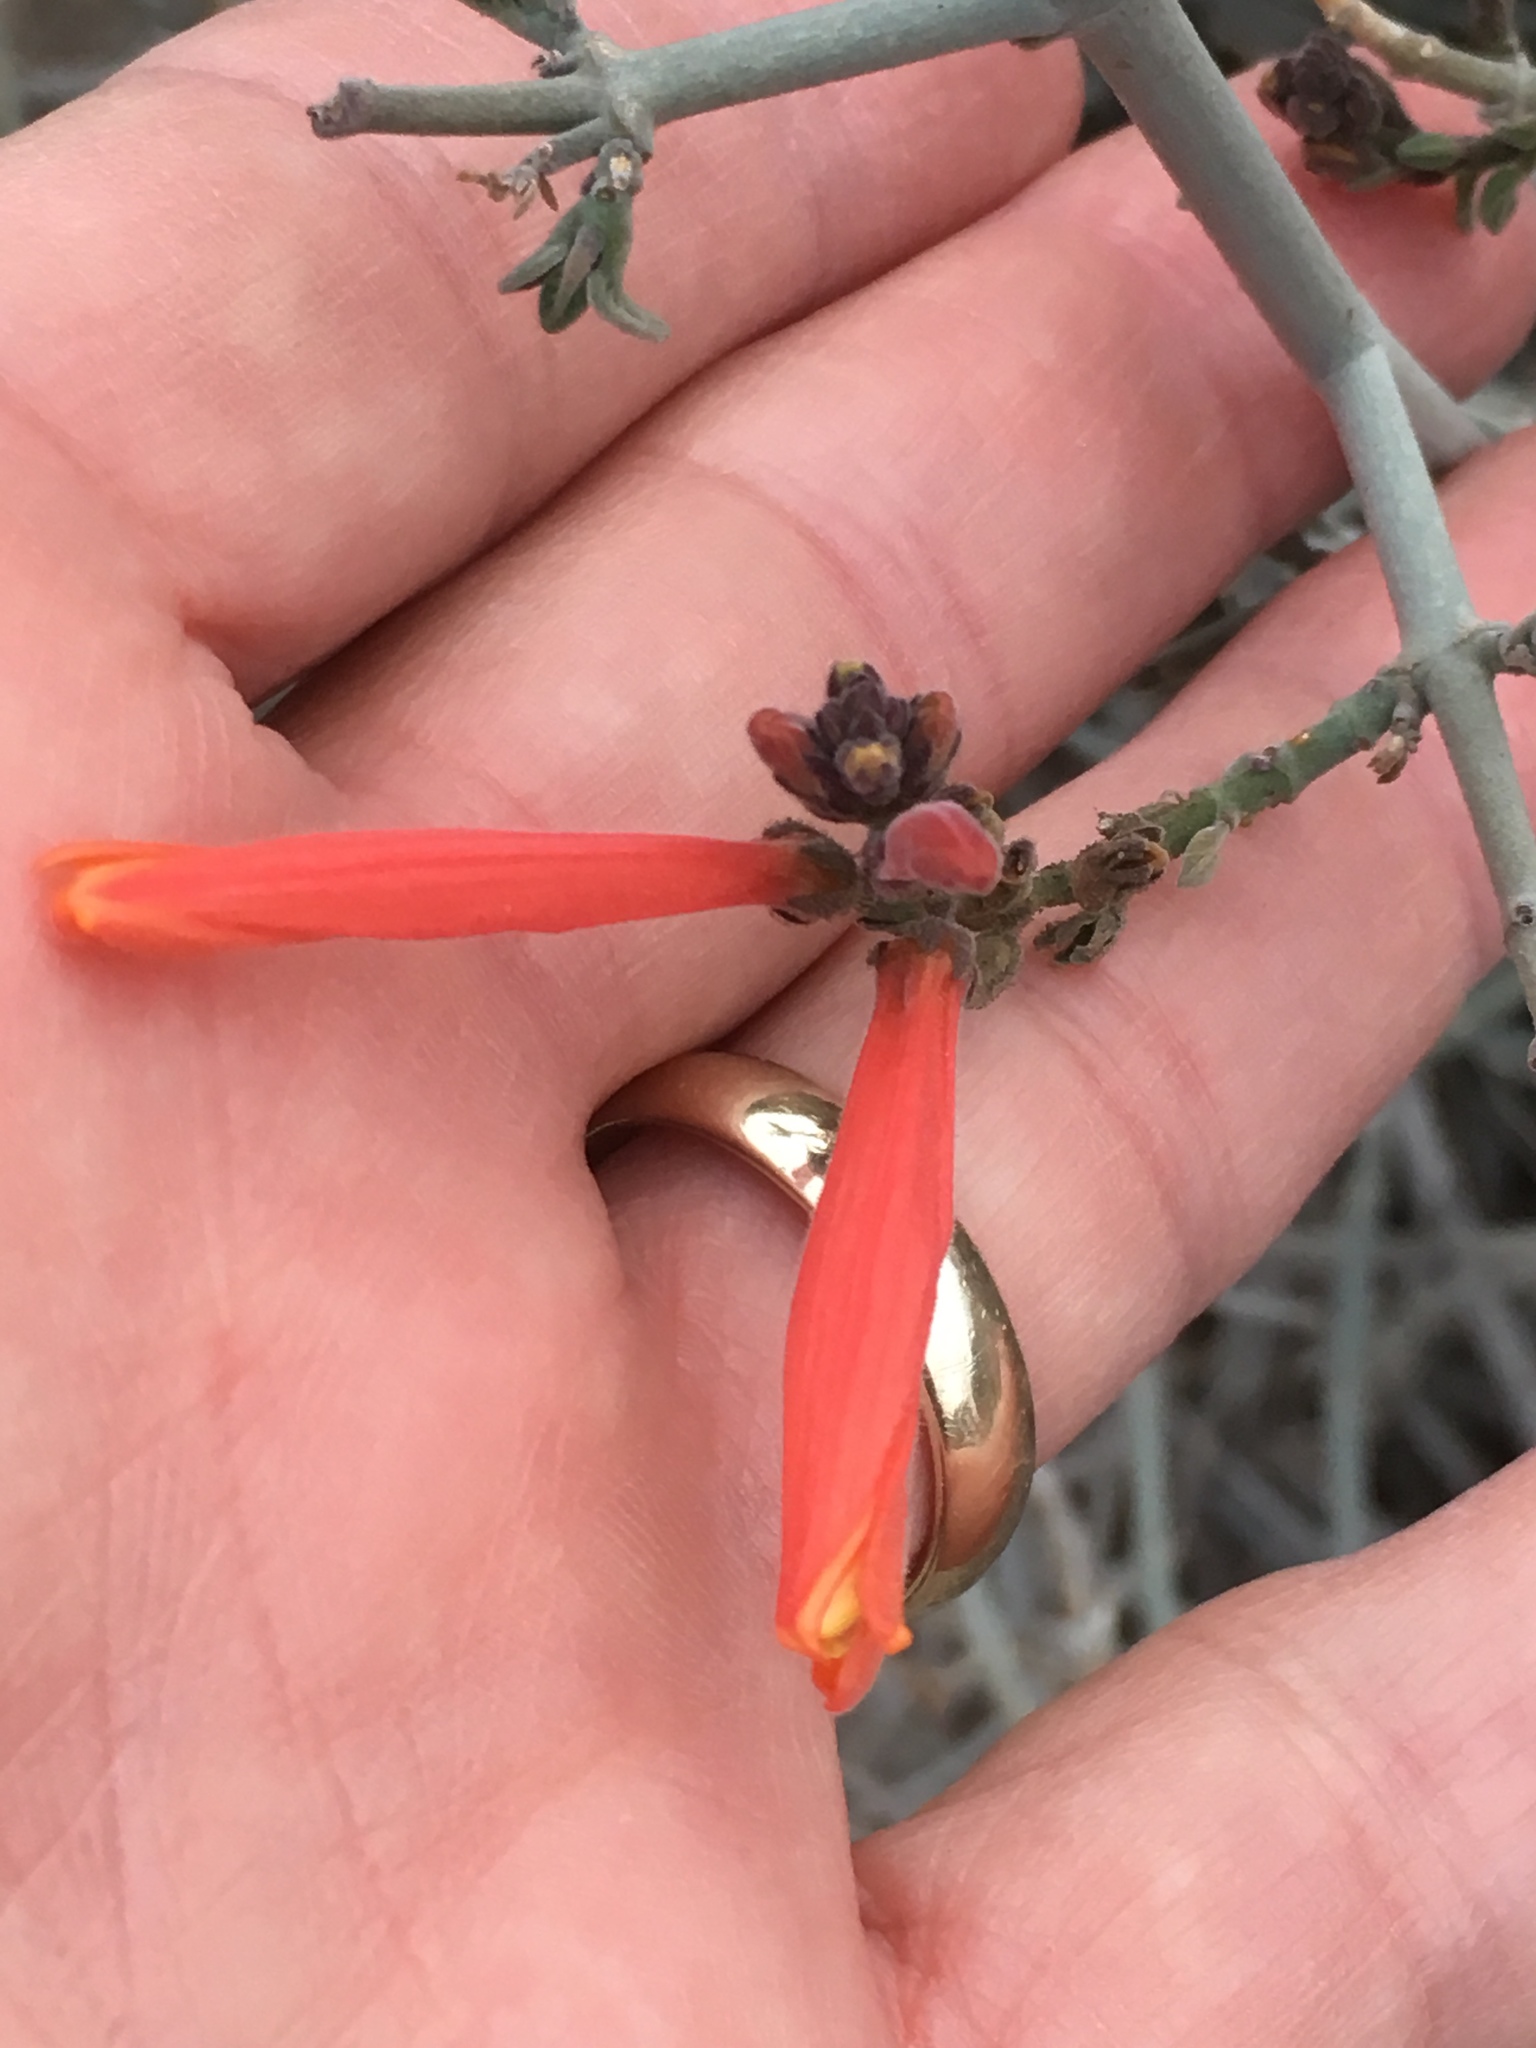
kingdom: Plantae
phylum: Tracheophyta
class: Magnoliopsida
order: Lamiales
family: Acanthaceae
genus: Justicia
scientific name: Justicia californica
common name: Chuparosa-honeysuckle
